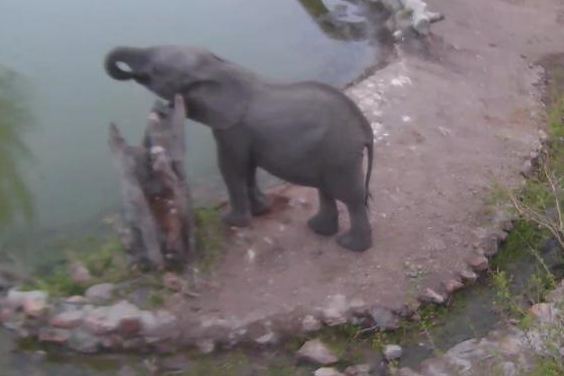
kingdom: Animalia
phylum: Chordata
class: Mammalia
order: Proboscidea
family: Elephantidae
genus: Loxodonta
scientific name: Loxodonta africana
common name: African elephant
